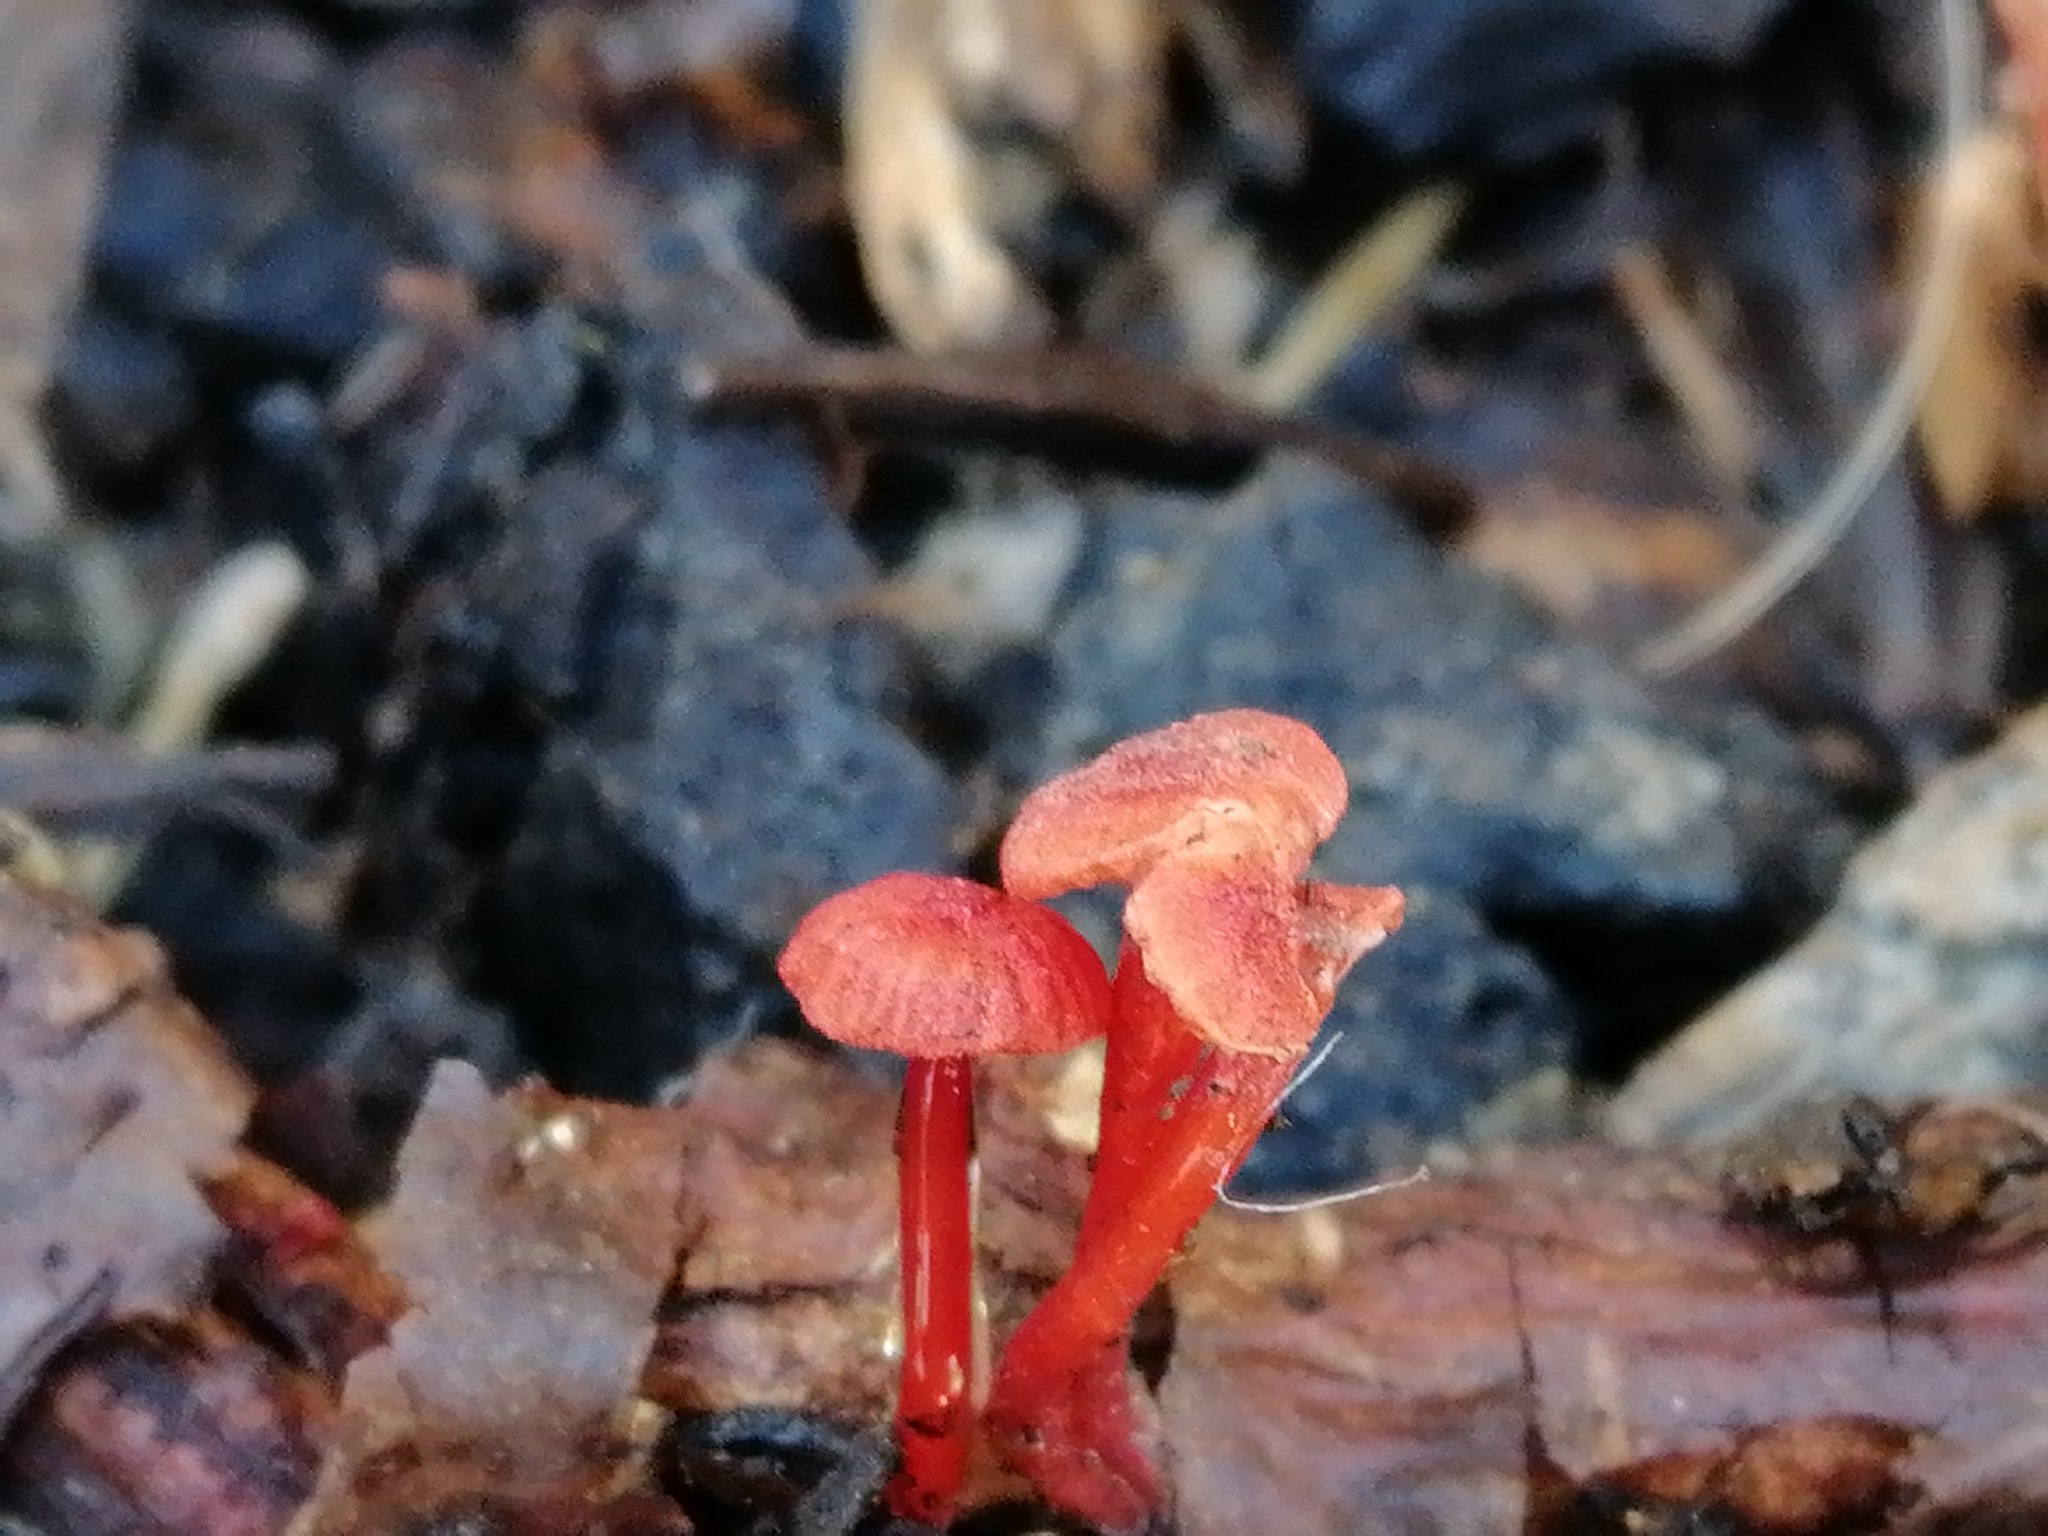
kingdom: Fungi
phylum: Basidiomycota
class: Agaricomycetes
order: Agaricales
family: Mycenaceae
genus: Cruentomycena
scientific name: Cruentomycena viscidocruenta
